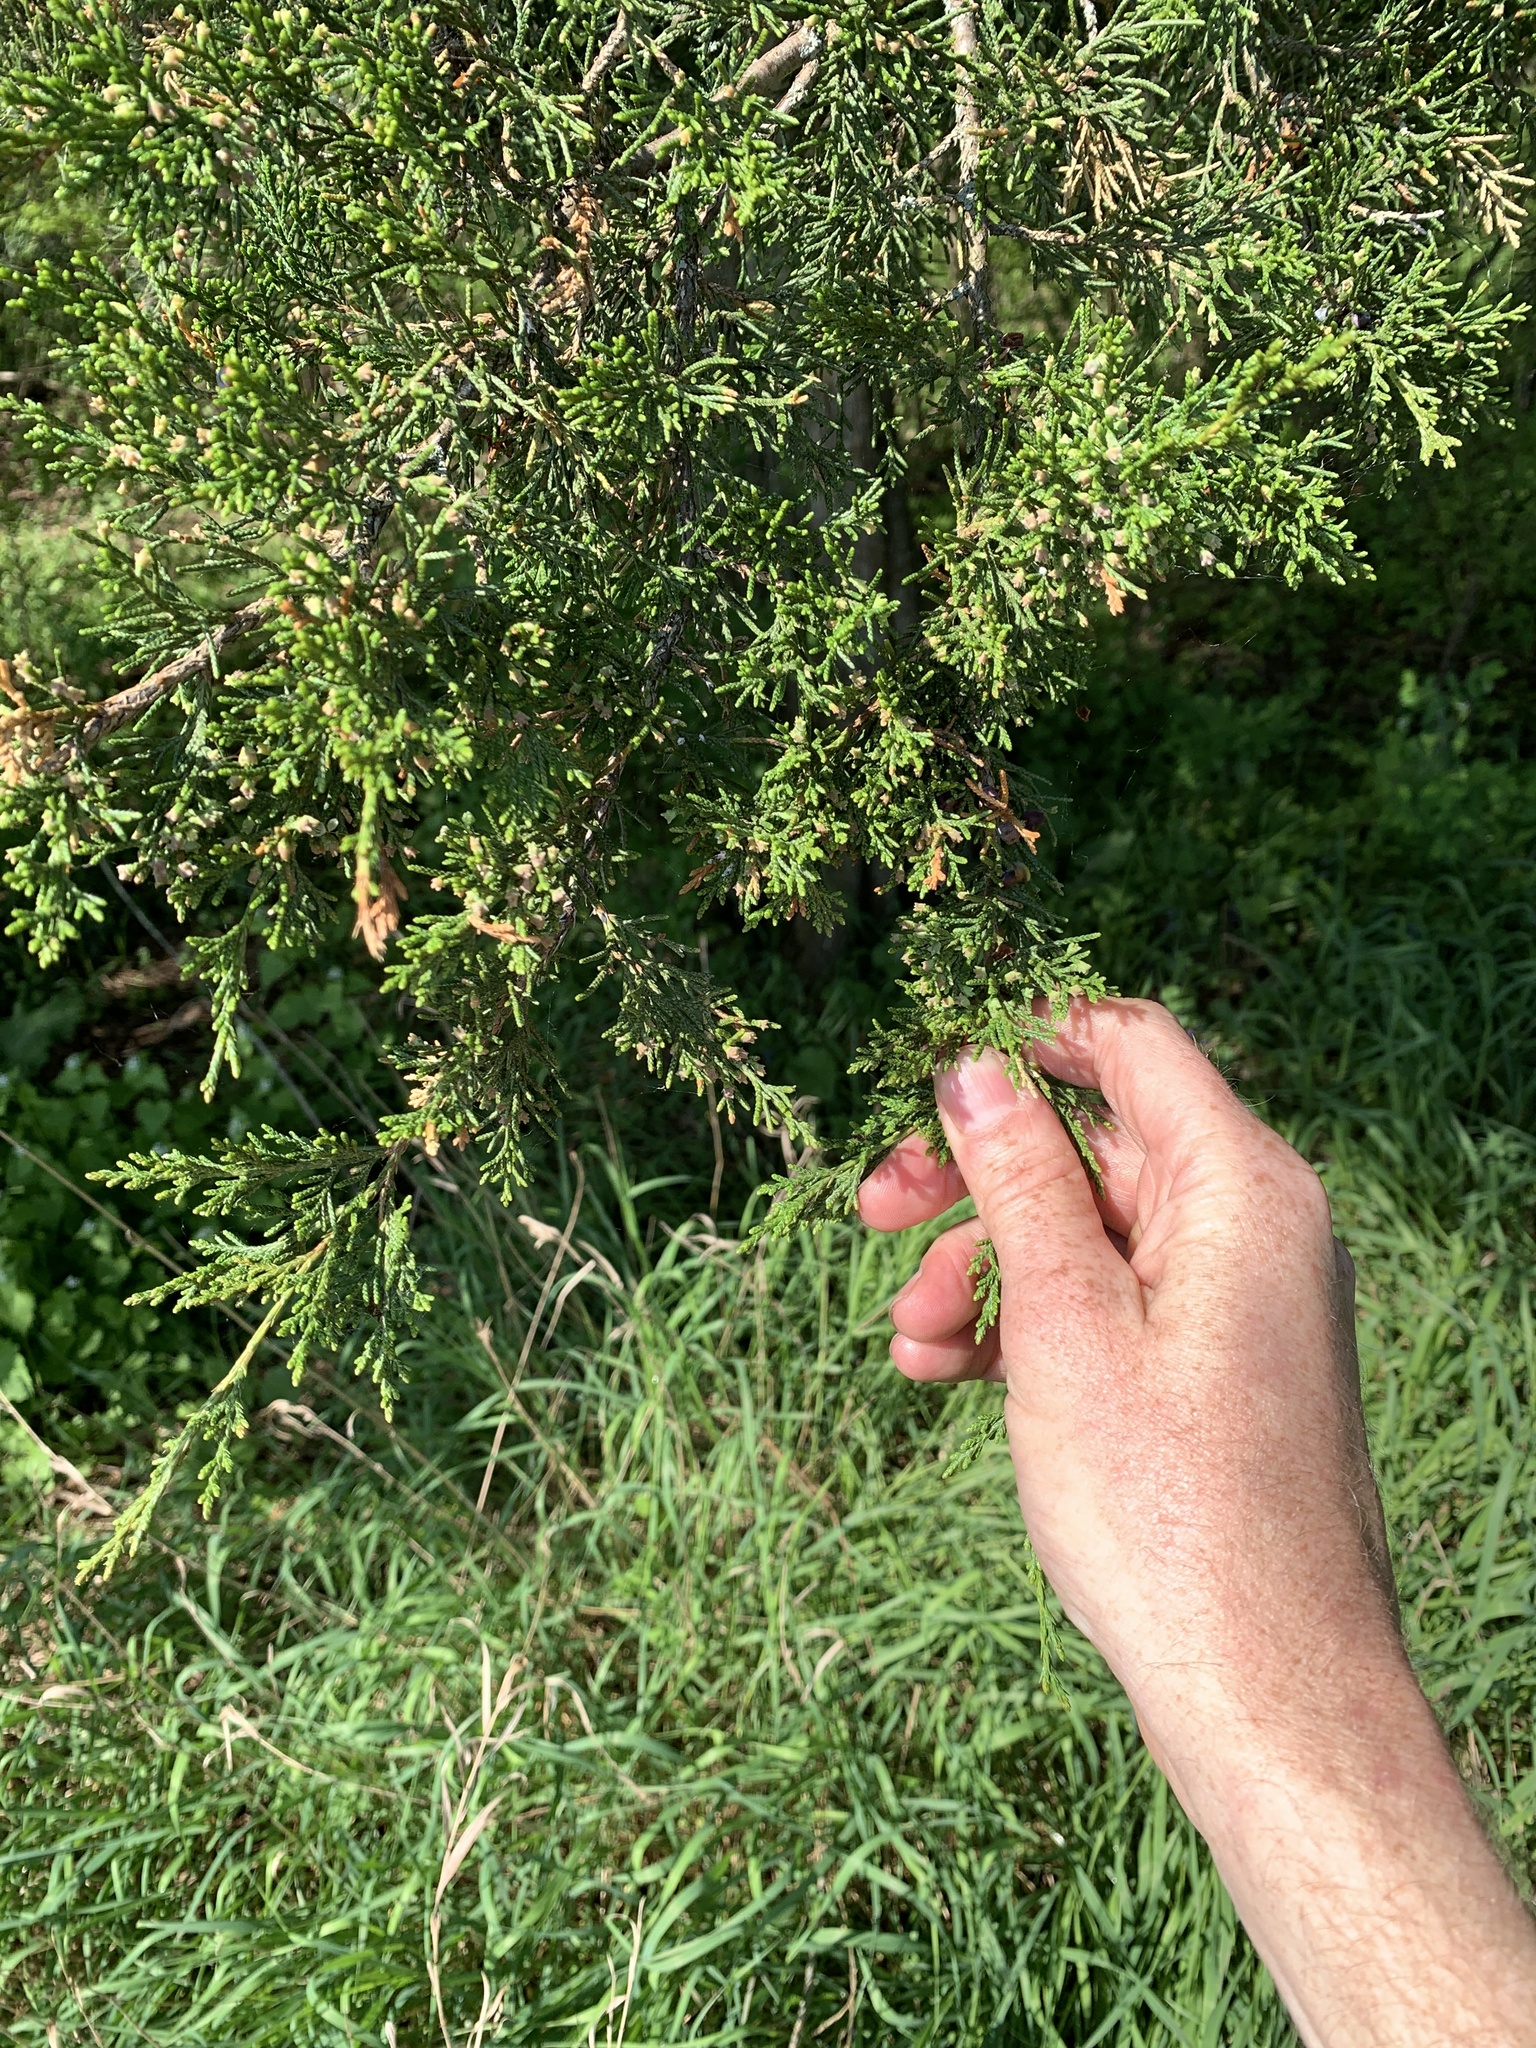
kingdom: Plantae
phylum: Tracheophyta
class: Pinopsida
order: Pinales
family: Cupressaceae
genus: Juniperus
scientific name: Juniperus virginiana
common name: Red juniper
